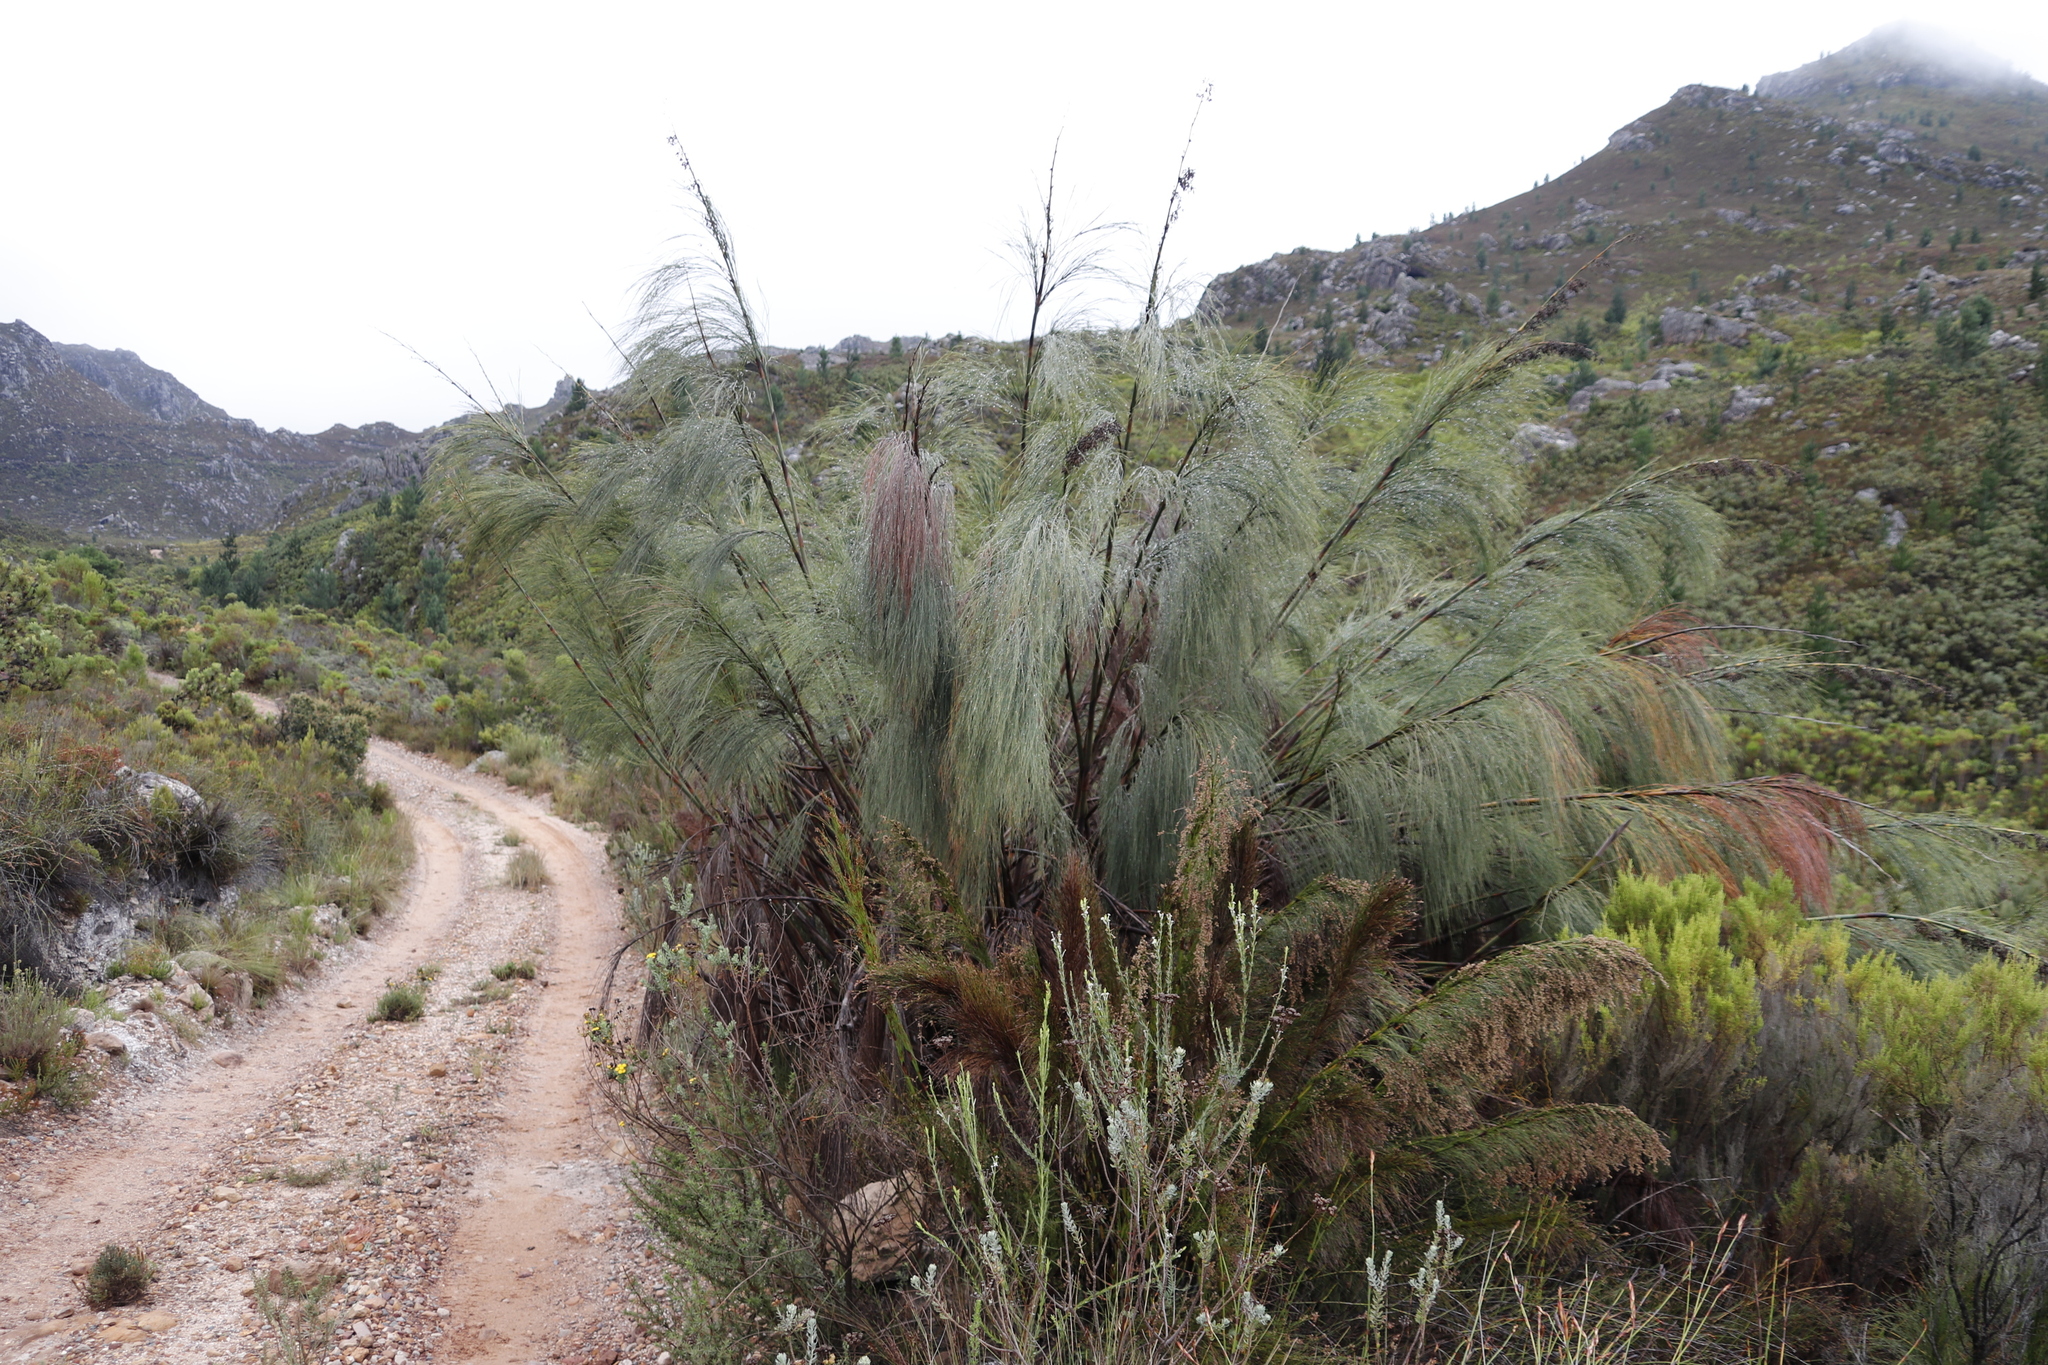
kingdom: Plantae
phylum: Tracheophyta
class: Liliopsida
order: Poales
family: Restionaceae
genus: Cannomois
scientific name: Cannomois grandis
